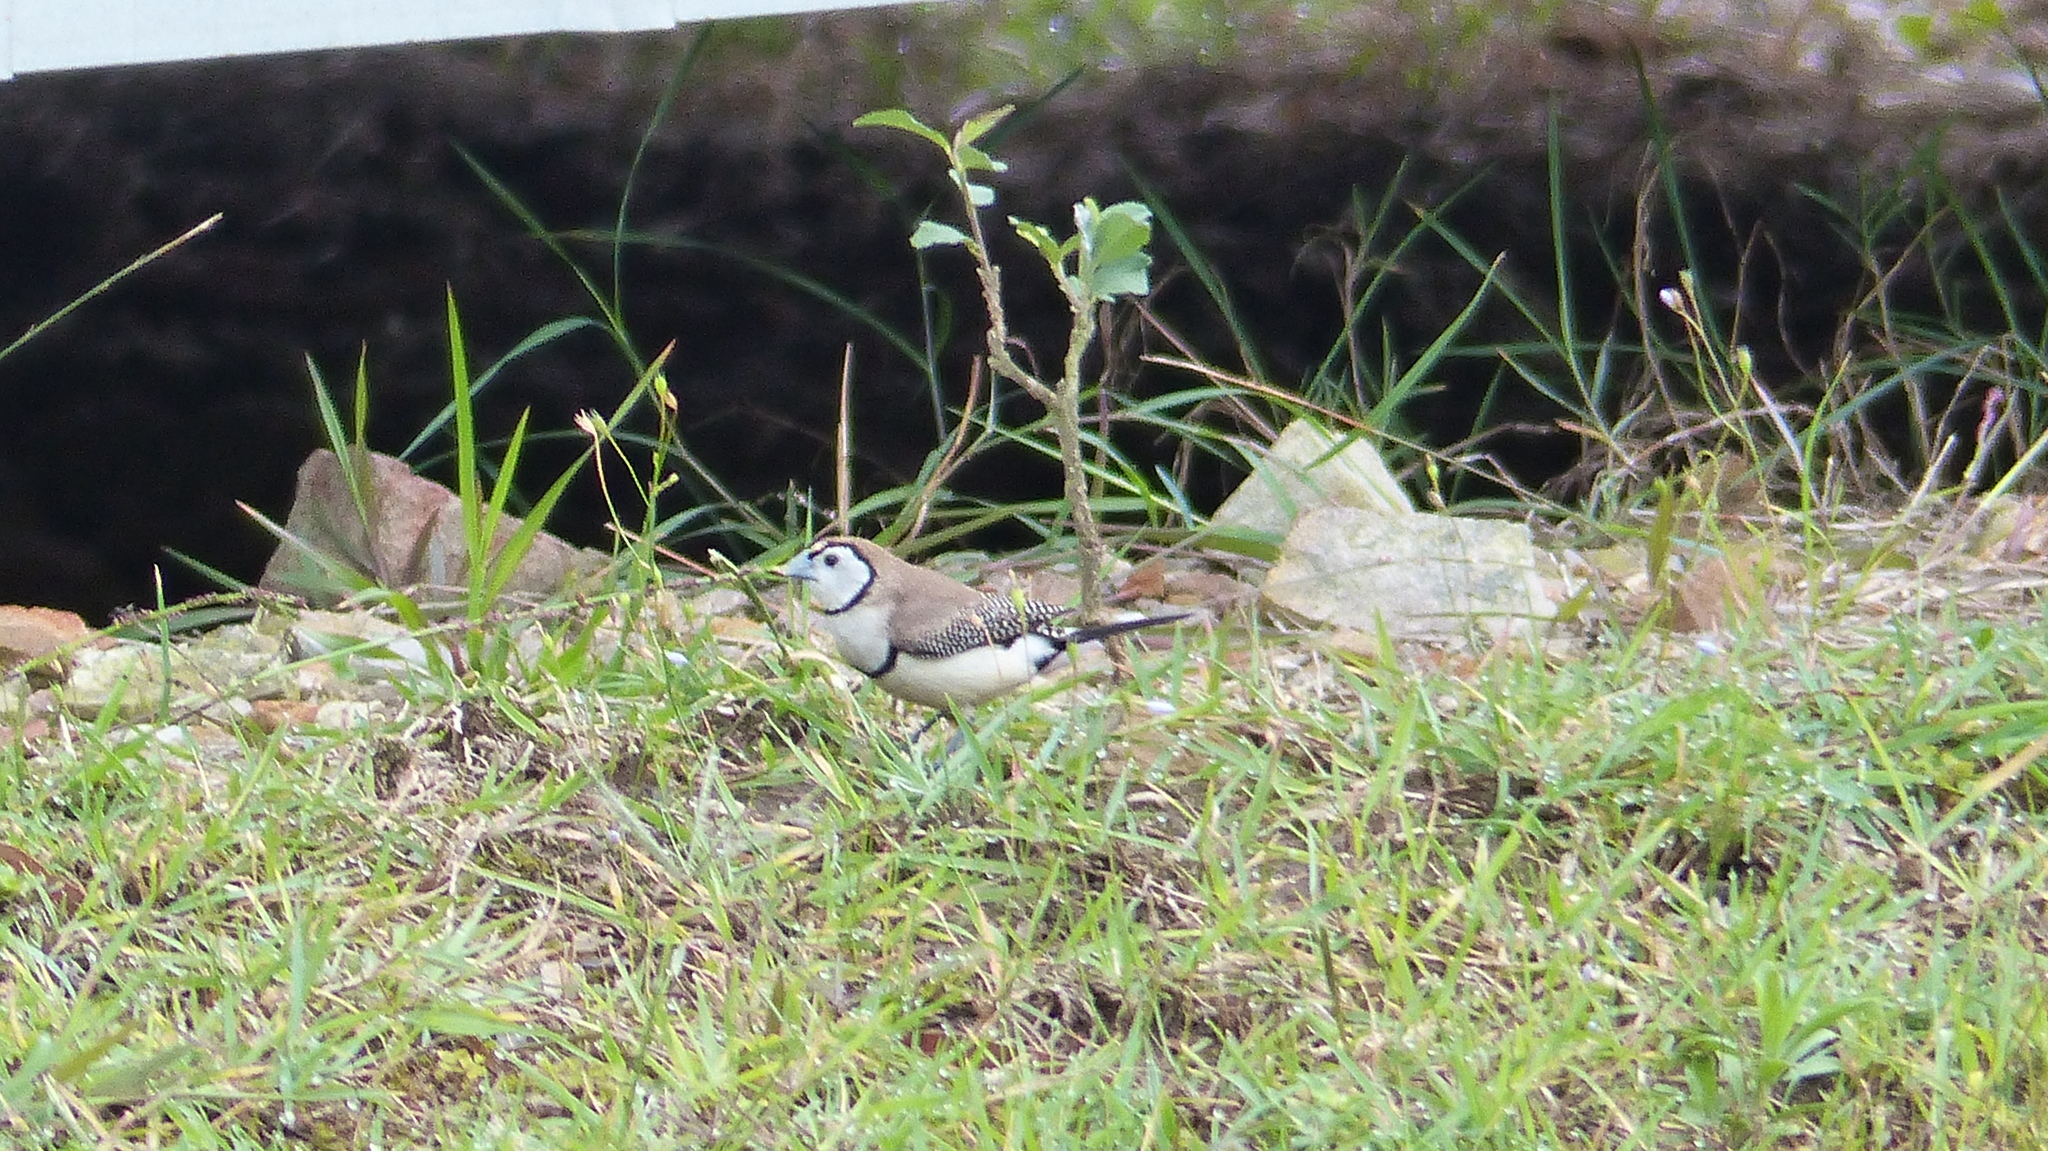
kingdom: Animalia
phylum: Chordata
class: Aves
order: Passeriformes
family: Estrildidae
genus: Taeniopygia
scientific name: Taeniopygia bichenovii
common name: Double-barred finch
